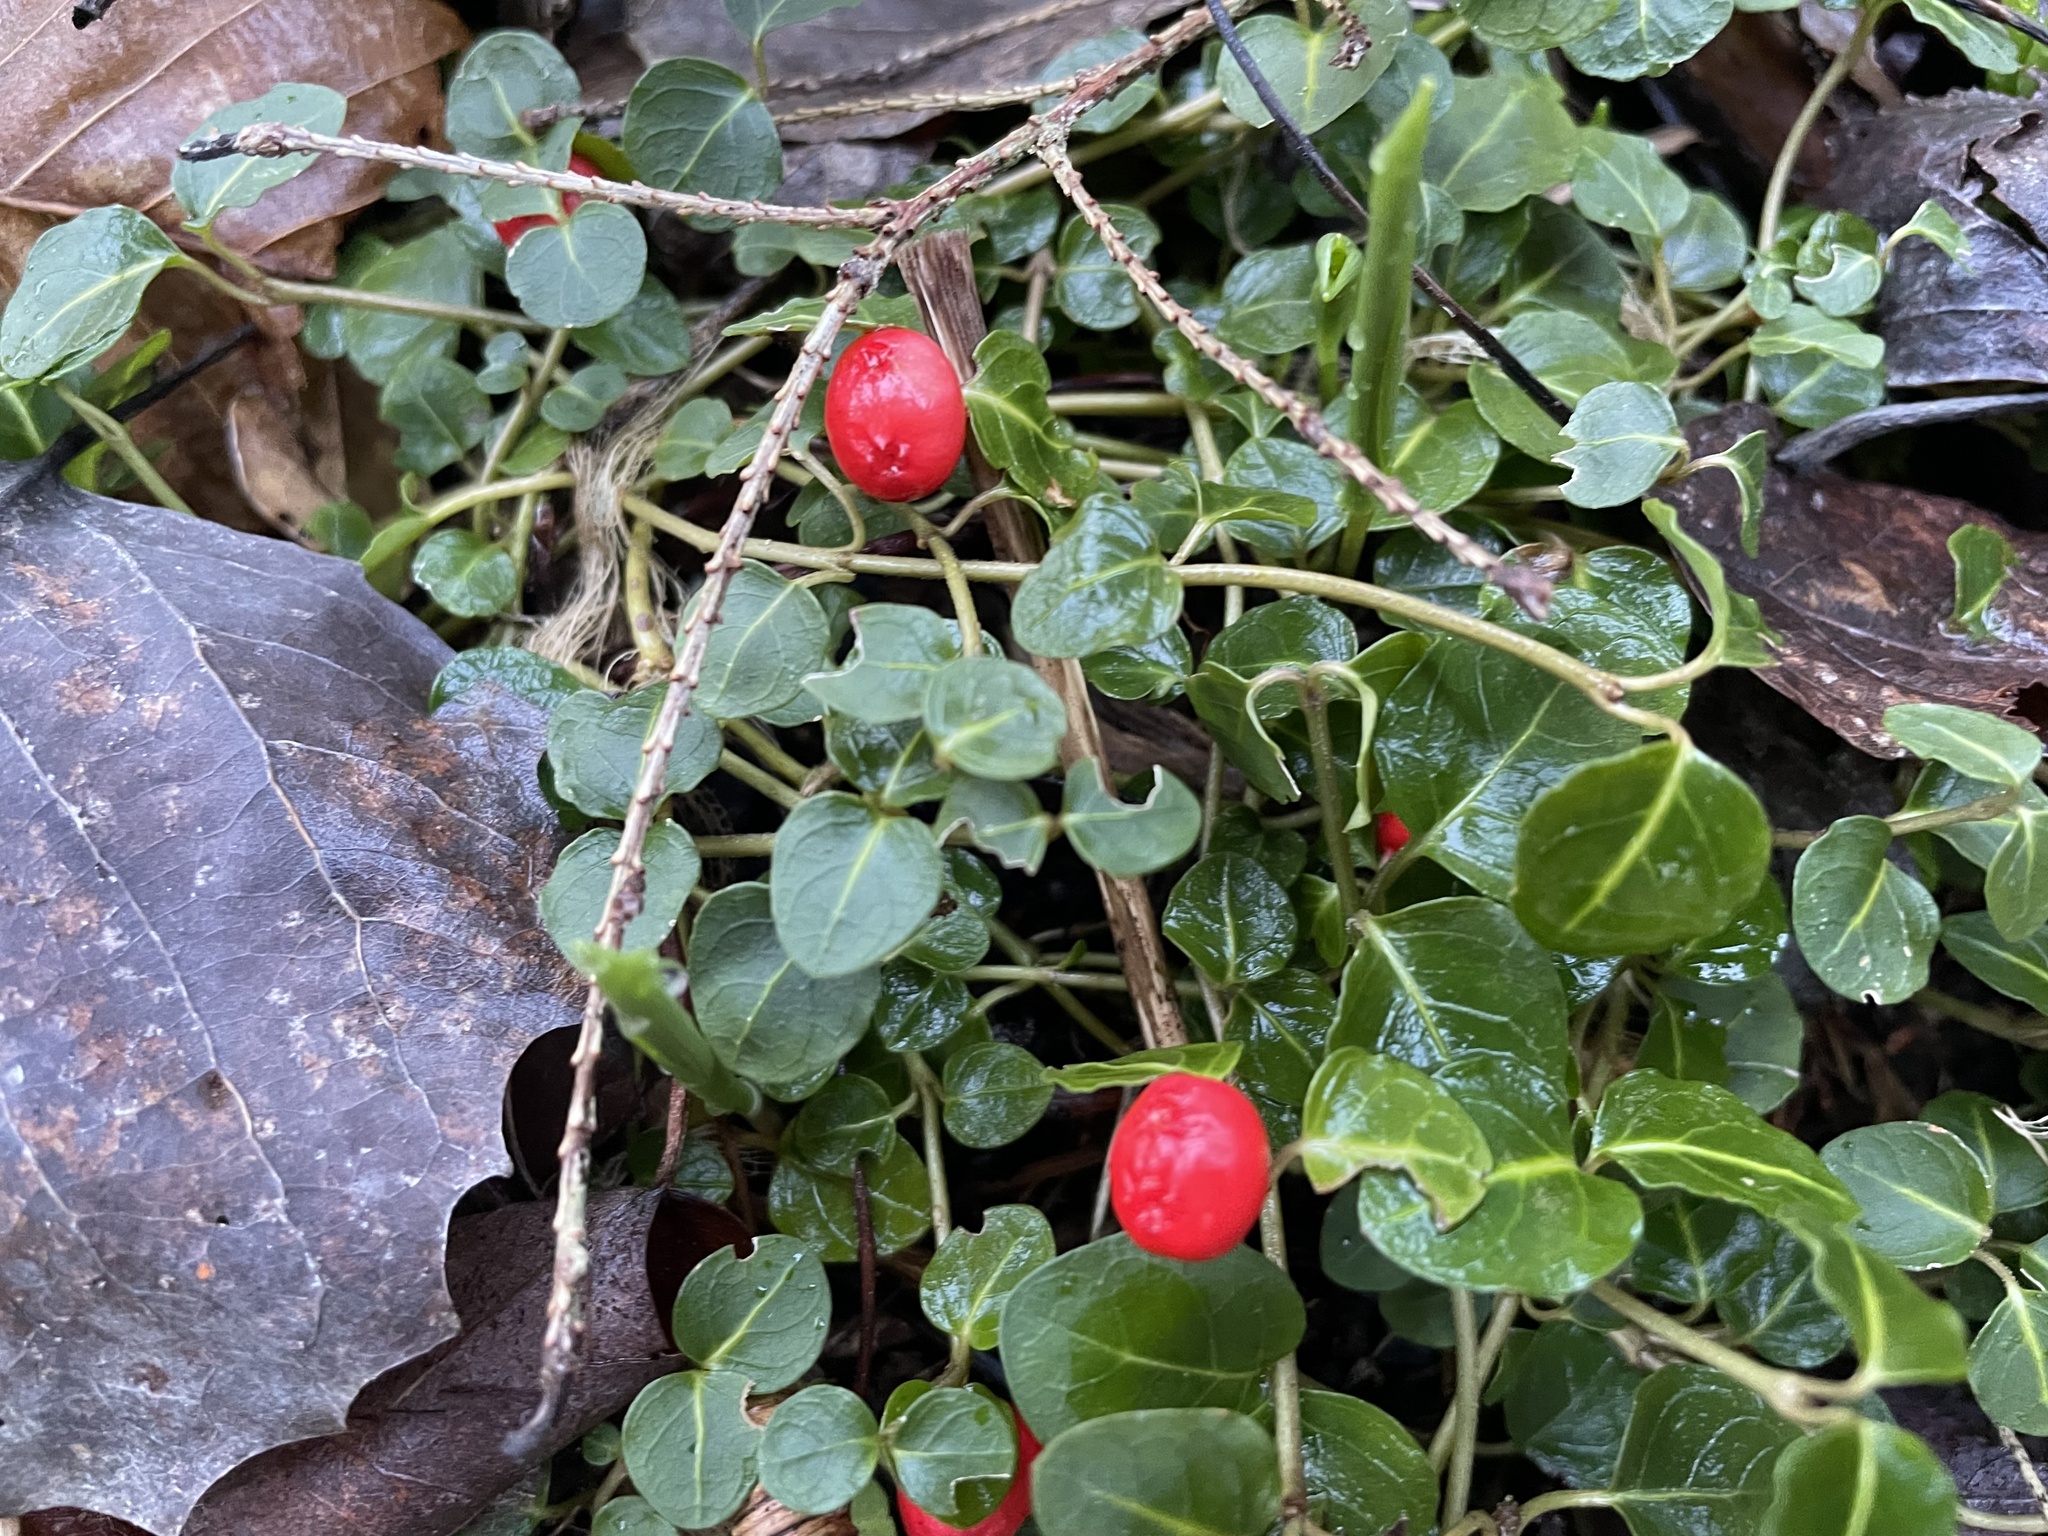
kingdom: Plantae
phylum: Tracheophyta
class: Magnoliopsida
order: Gentianales
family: Rubiaceae
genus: Mitchella
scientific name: Mitchella repens
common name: Partridge-berry
